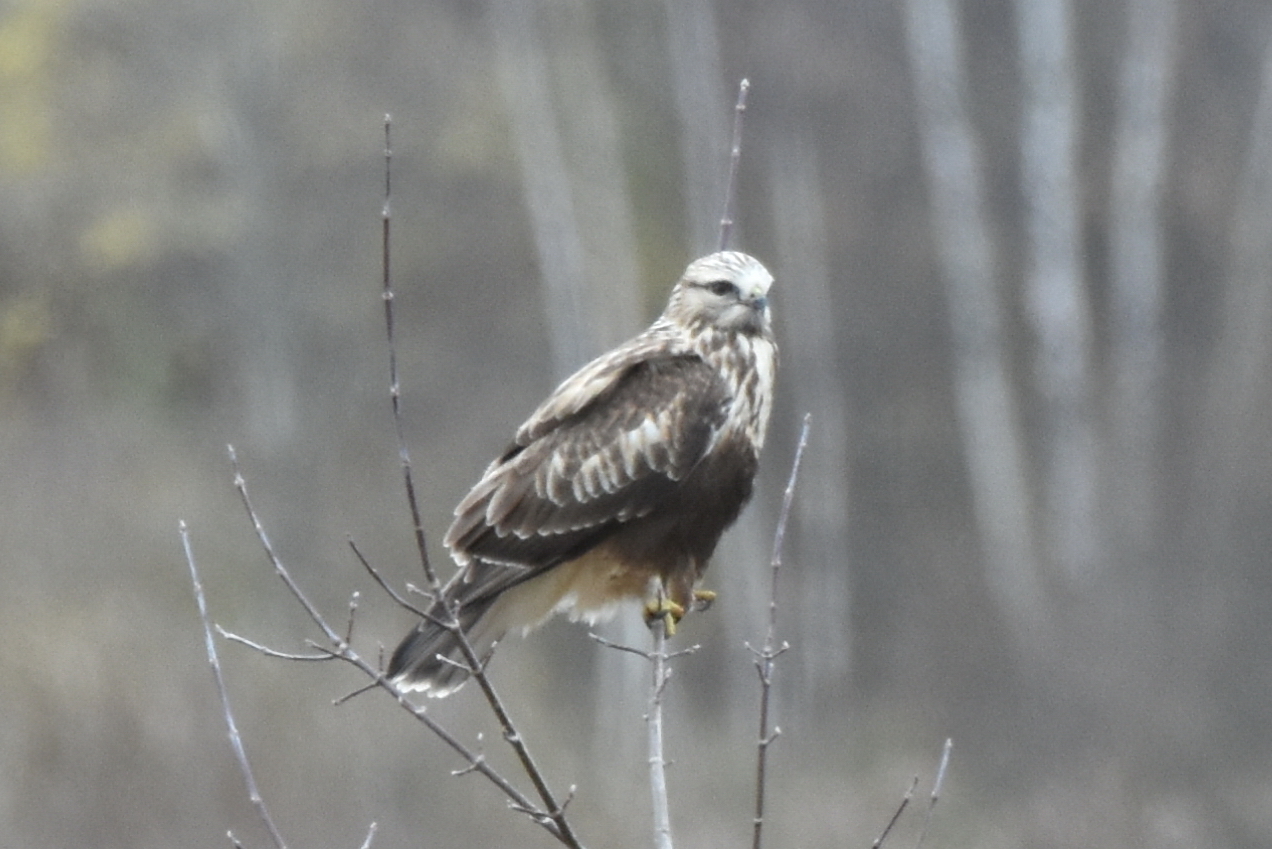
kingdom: Animalia
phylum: Chordata
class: Aves
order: Accipitriformes
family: Accipitridae
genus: Buteo
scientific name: Buteo lagopus
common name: Rough-legged buzzard
